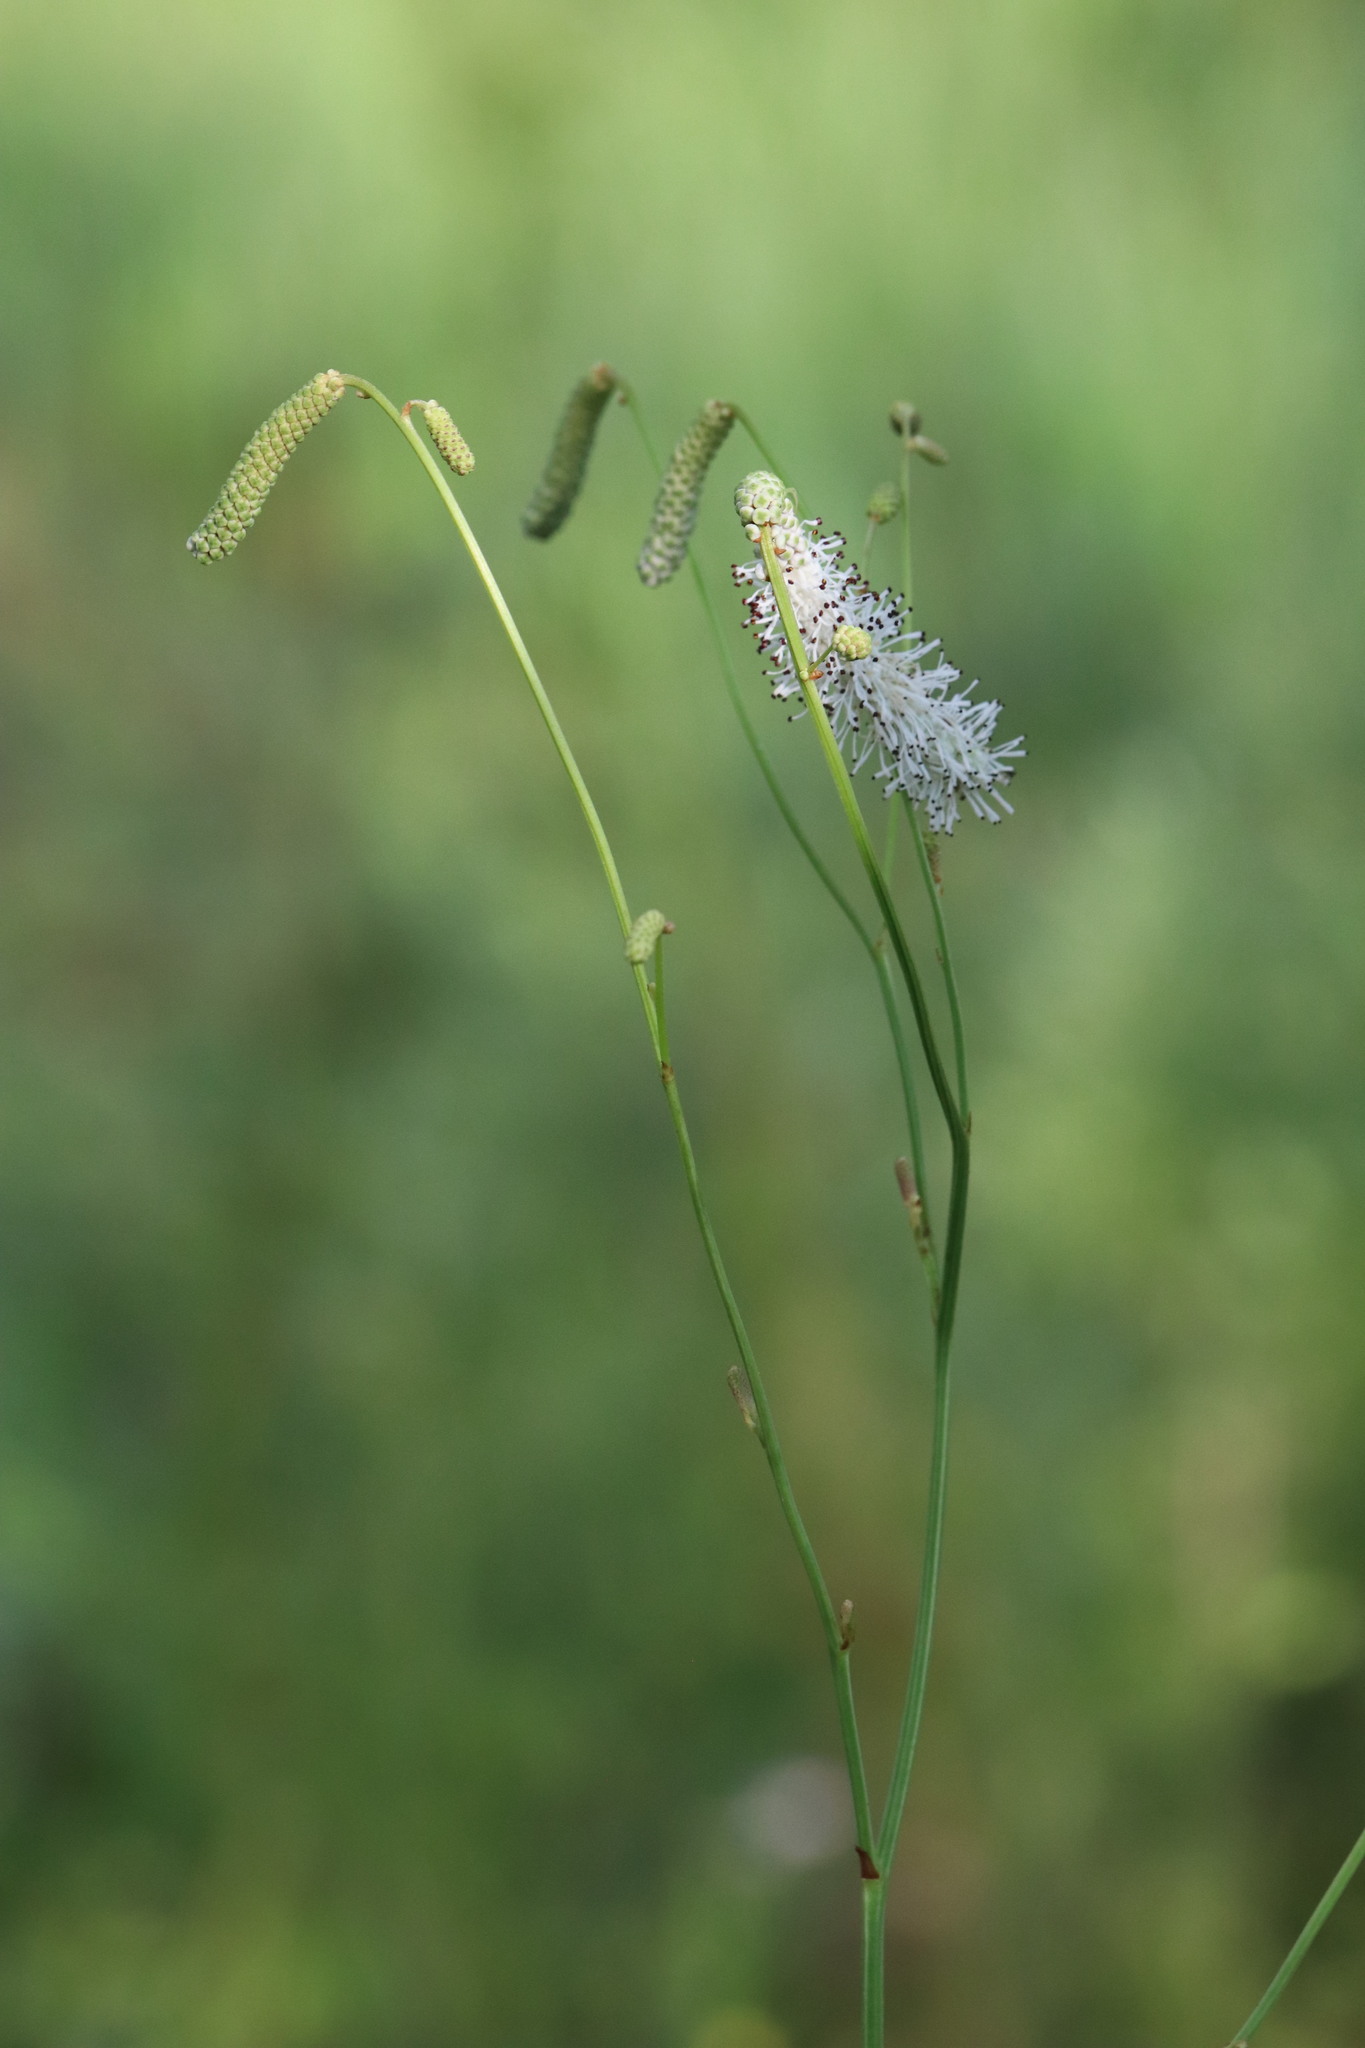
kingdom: Plantae
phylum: Tracheophyta
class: Magnoliopsida
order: Rosales
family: Rosaceae
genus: Poterium
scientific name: Poterium tenuifolium
